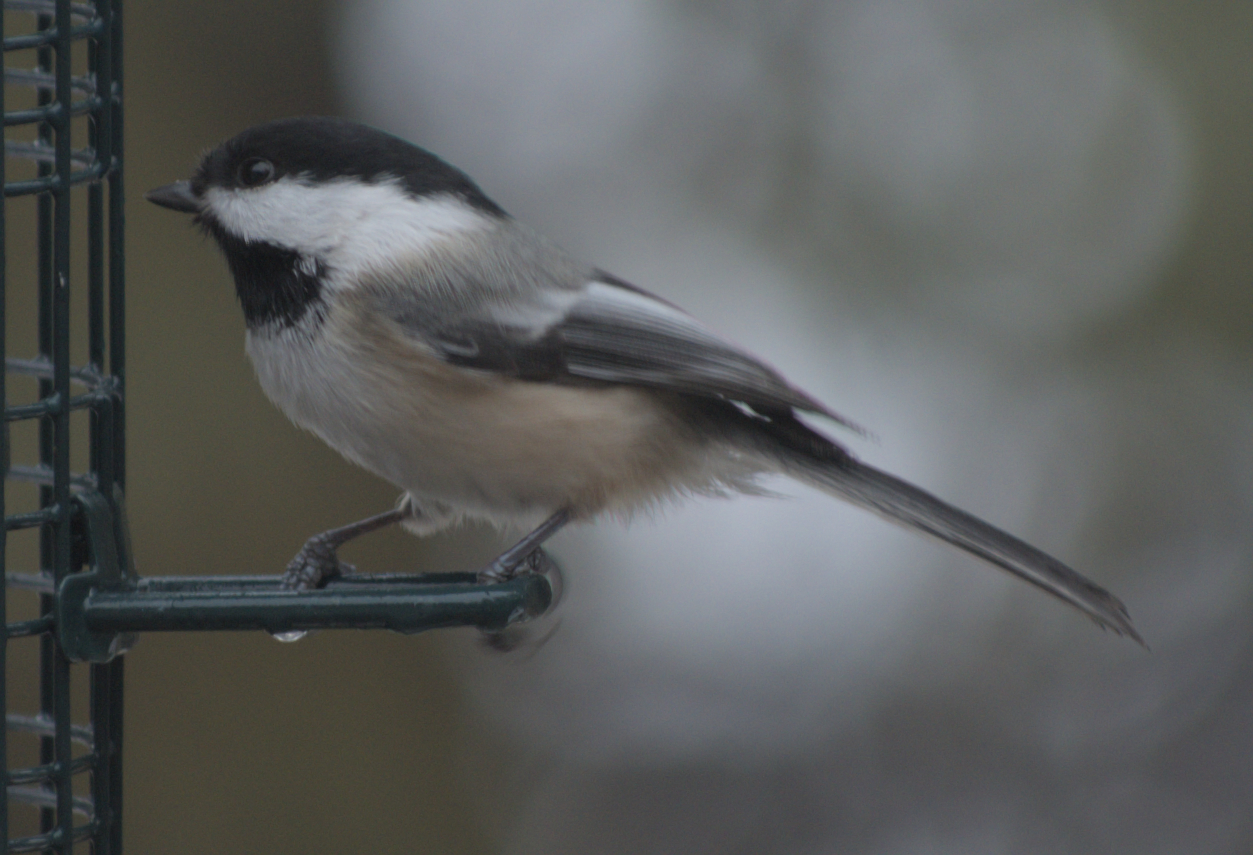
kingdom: Animalia
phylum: Chordata
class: Aves
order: Passeriformes
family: Paridae
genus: Poecile
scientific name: Poecile atricapillus
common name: Black-capped chickadee
